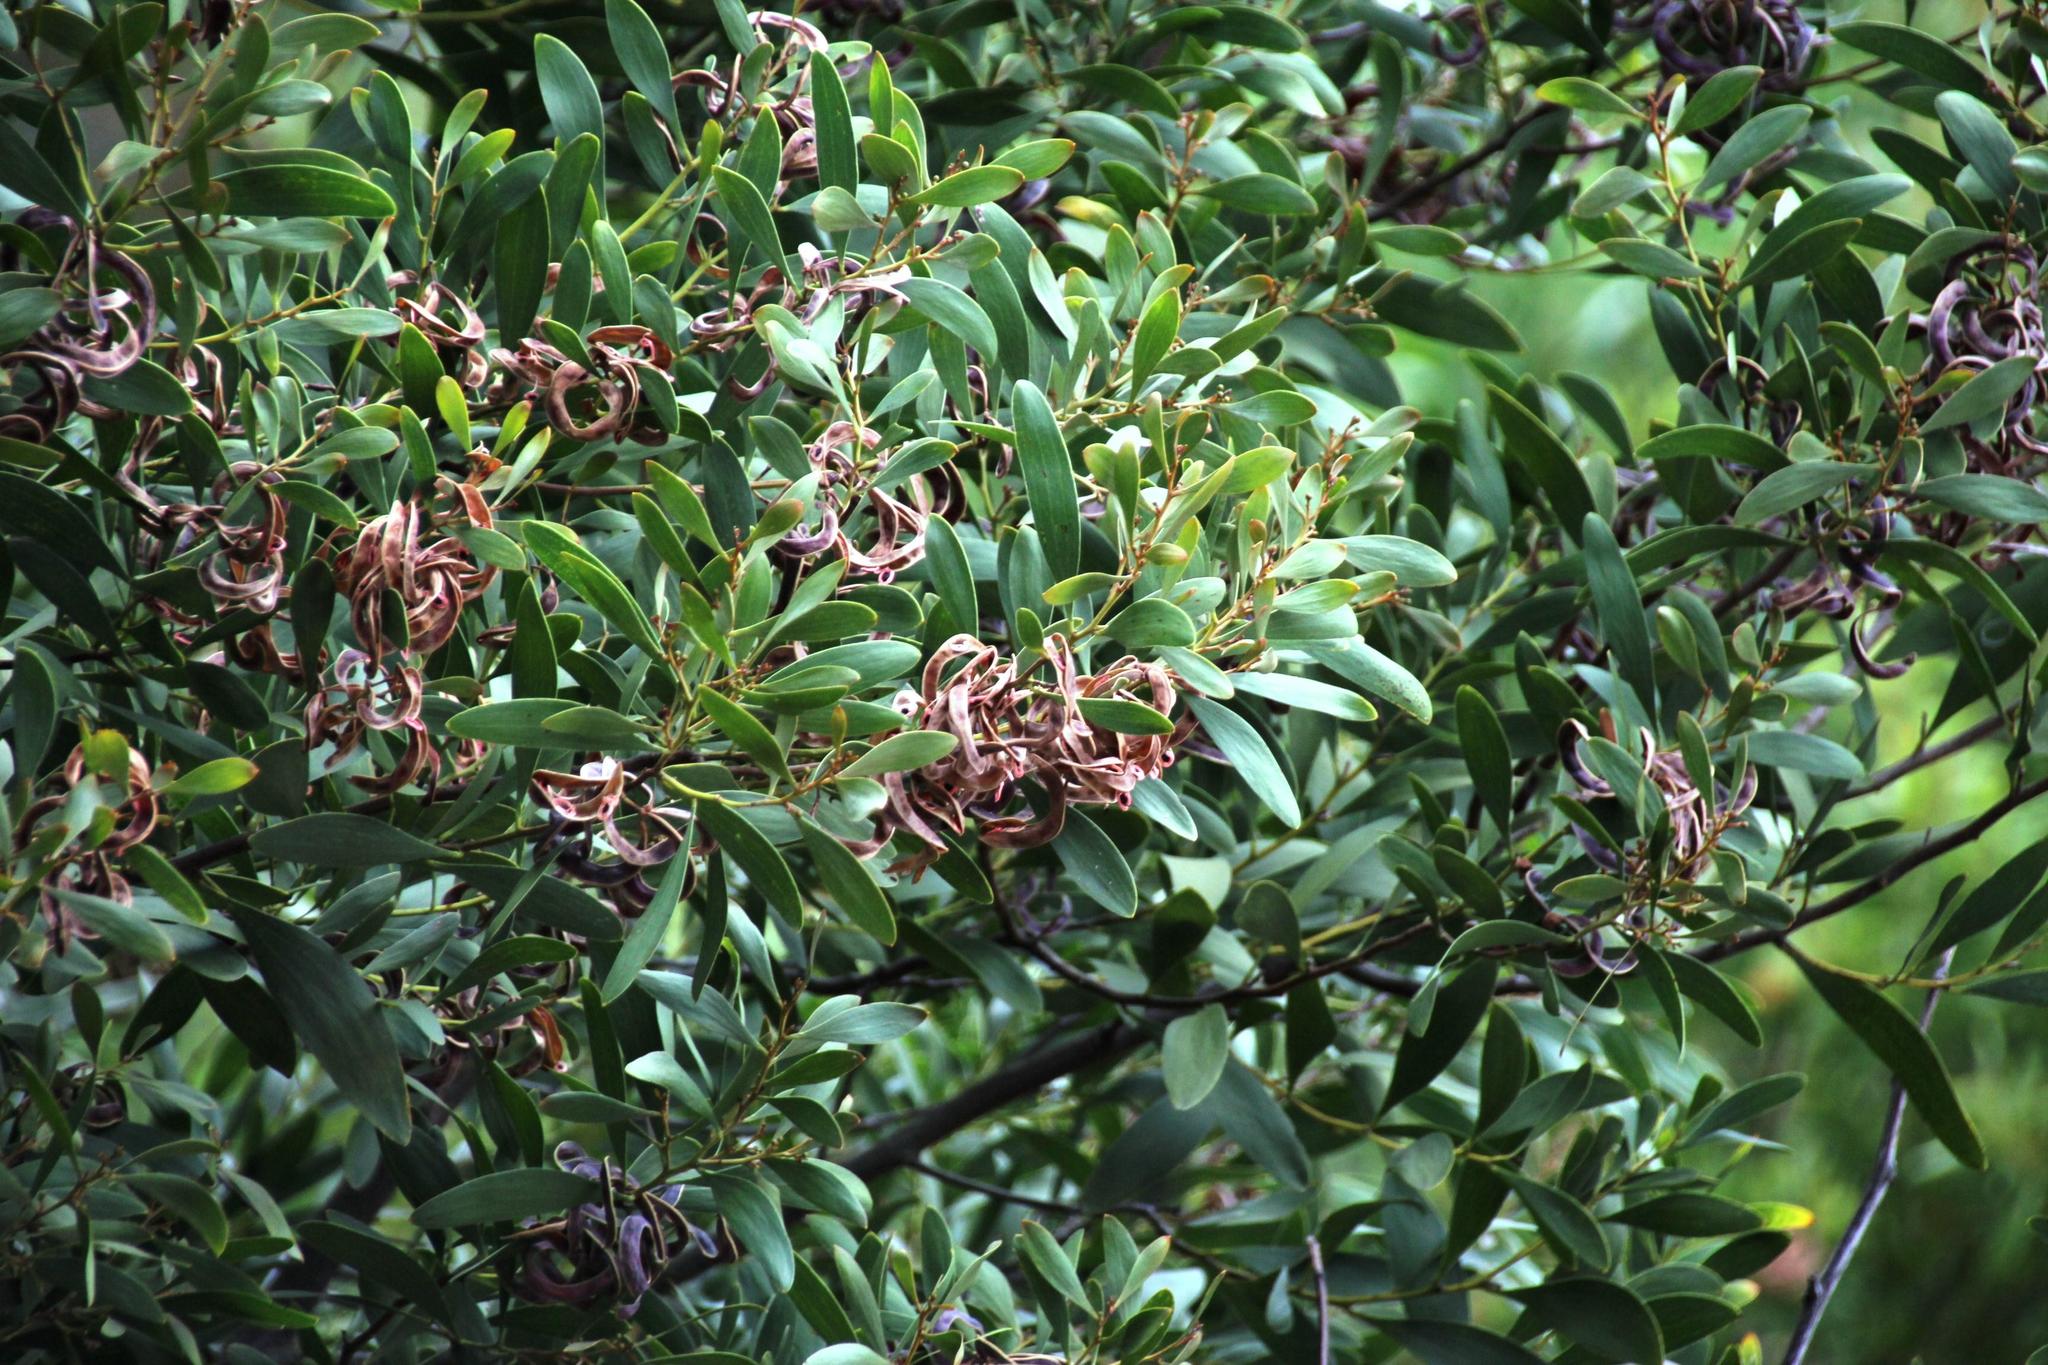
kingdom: Plantae
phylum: Tracheophyta
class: Magnoliopsida
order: Fabales
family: Fabaceae
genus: Acacia
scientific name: Acacia melanoxylon
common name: Blackwood
